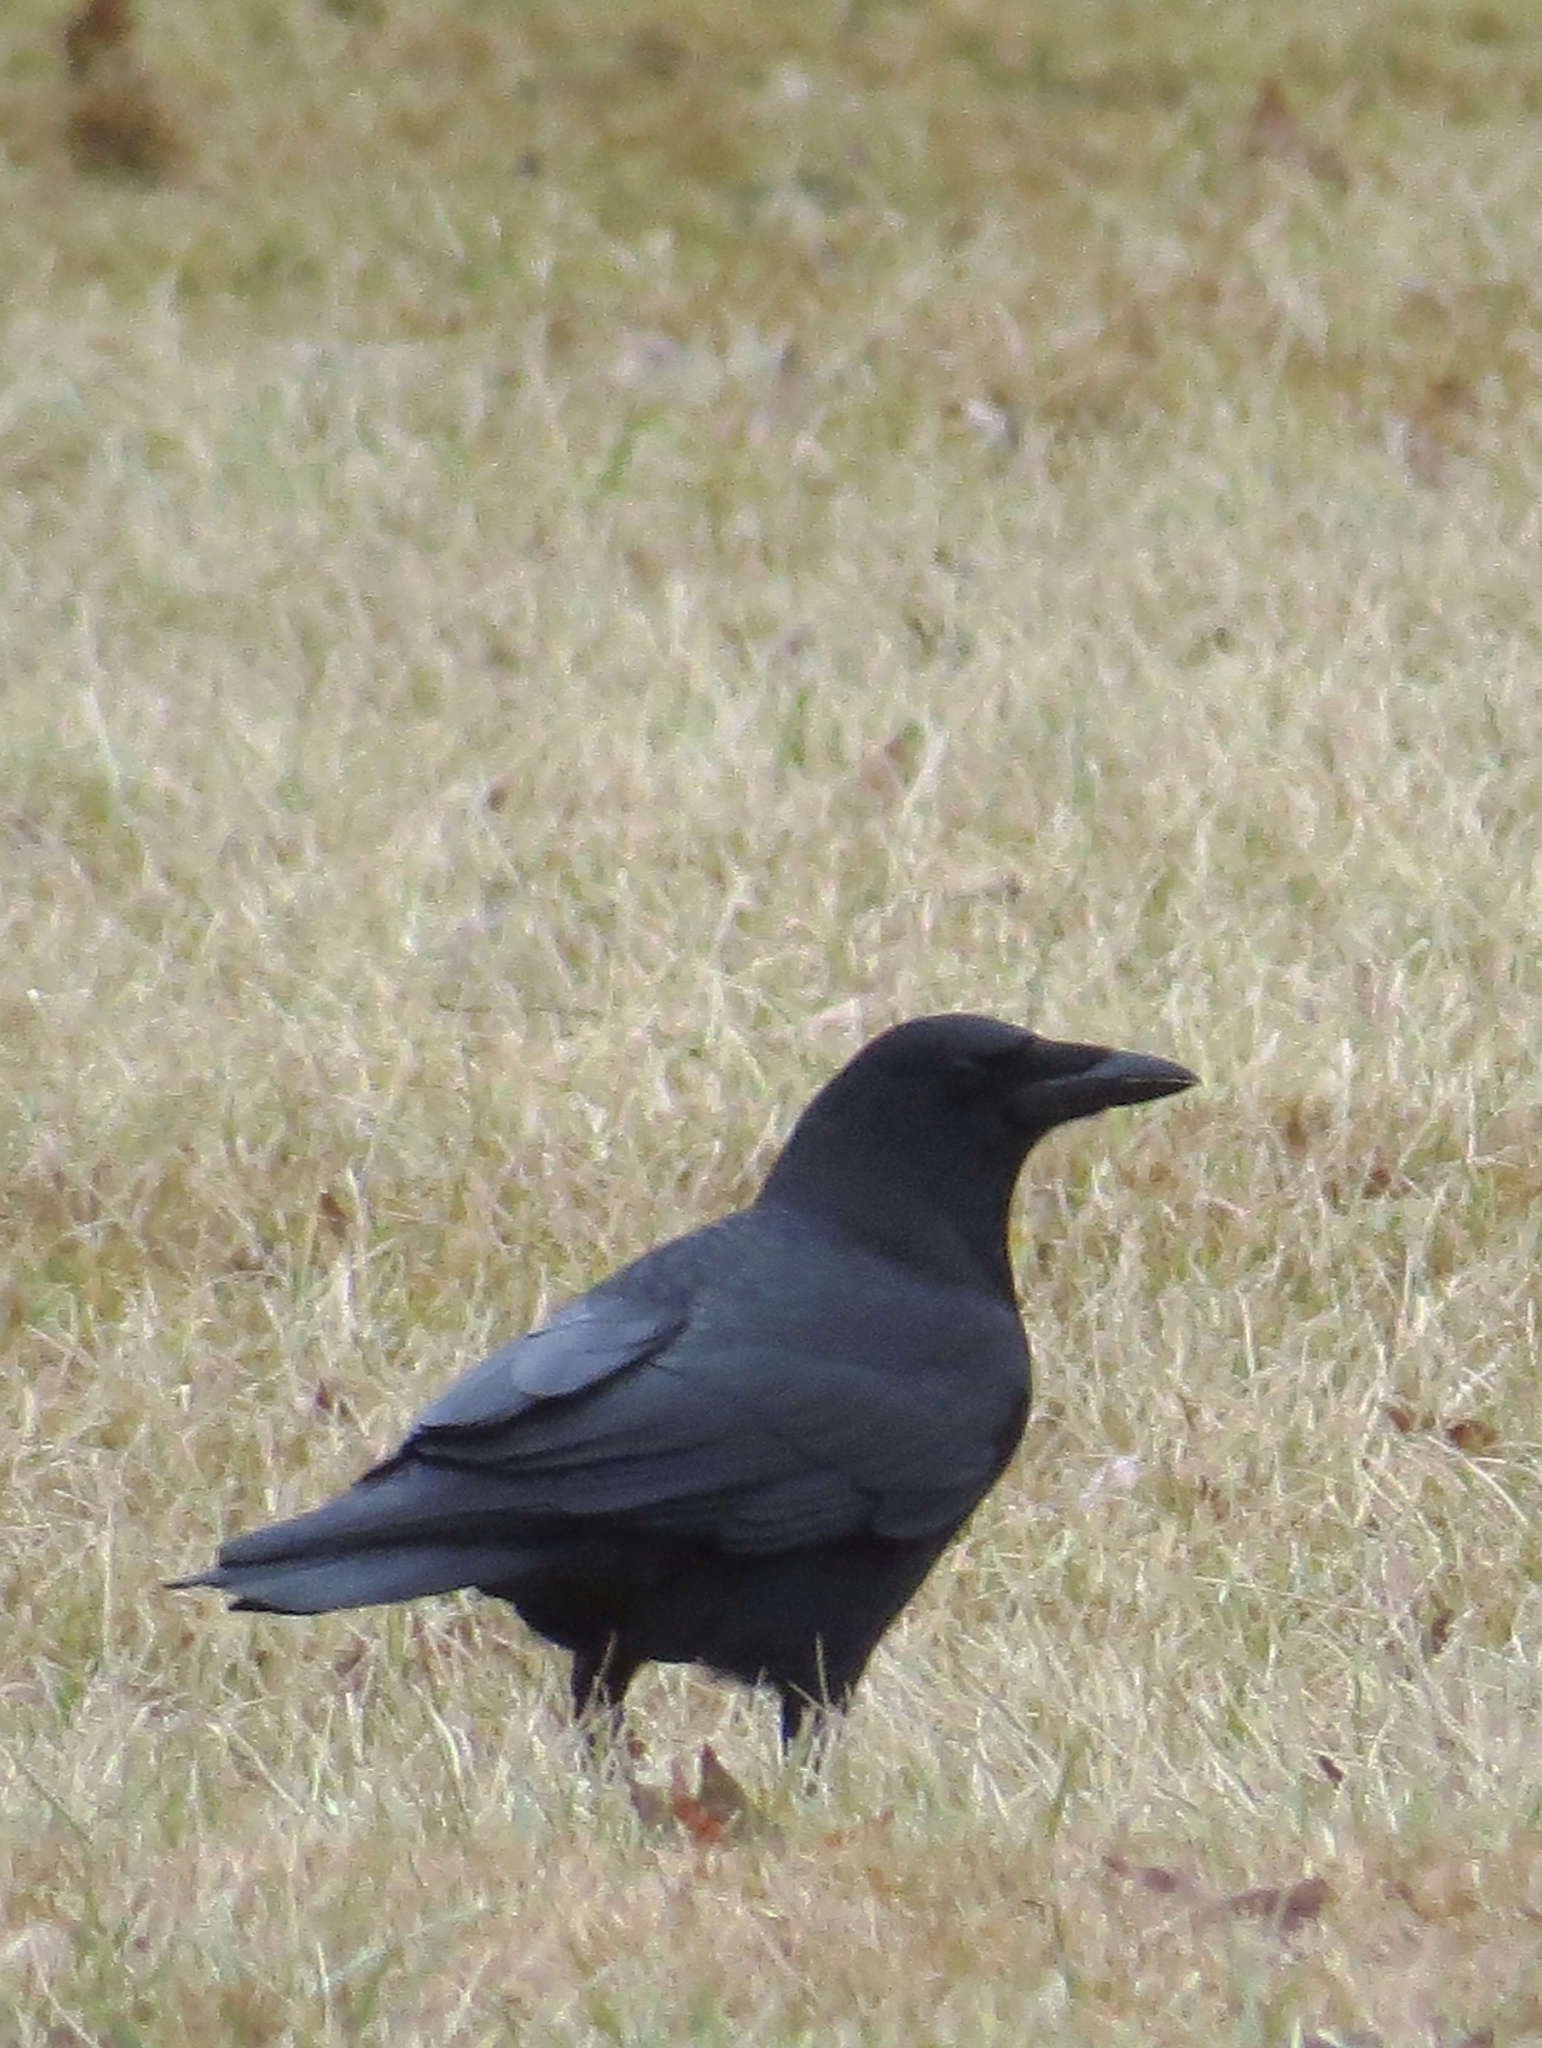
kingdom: Animalia
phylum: Chordata
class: Aves
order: Passeriformes
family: Corvidae
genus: Corvus
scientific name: Corvus brachyrhynchos
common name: American crow
